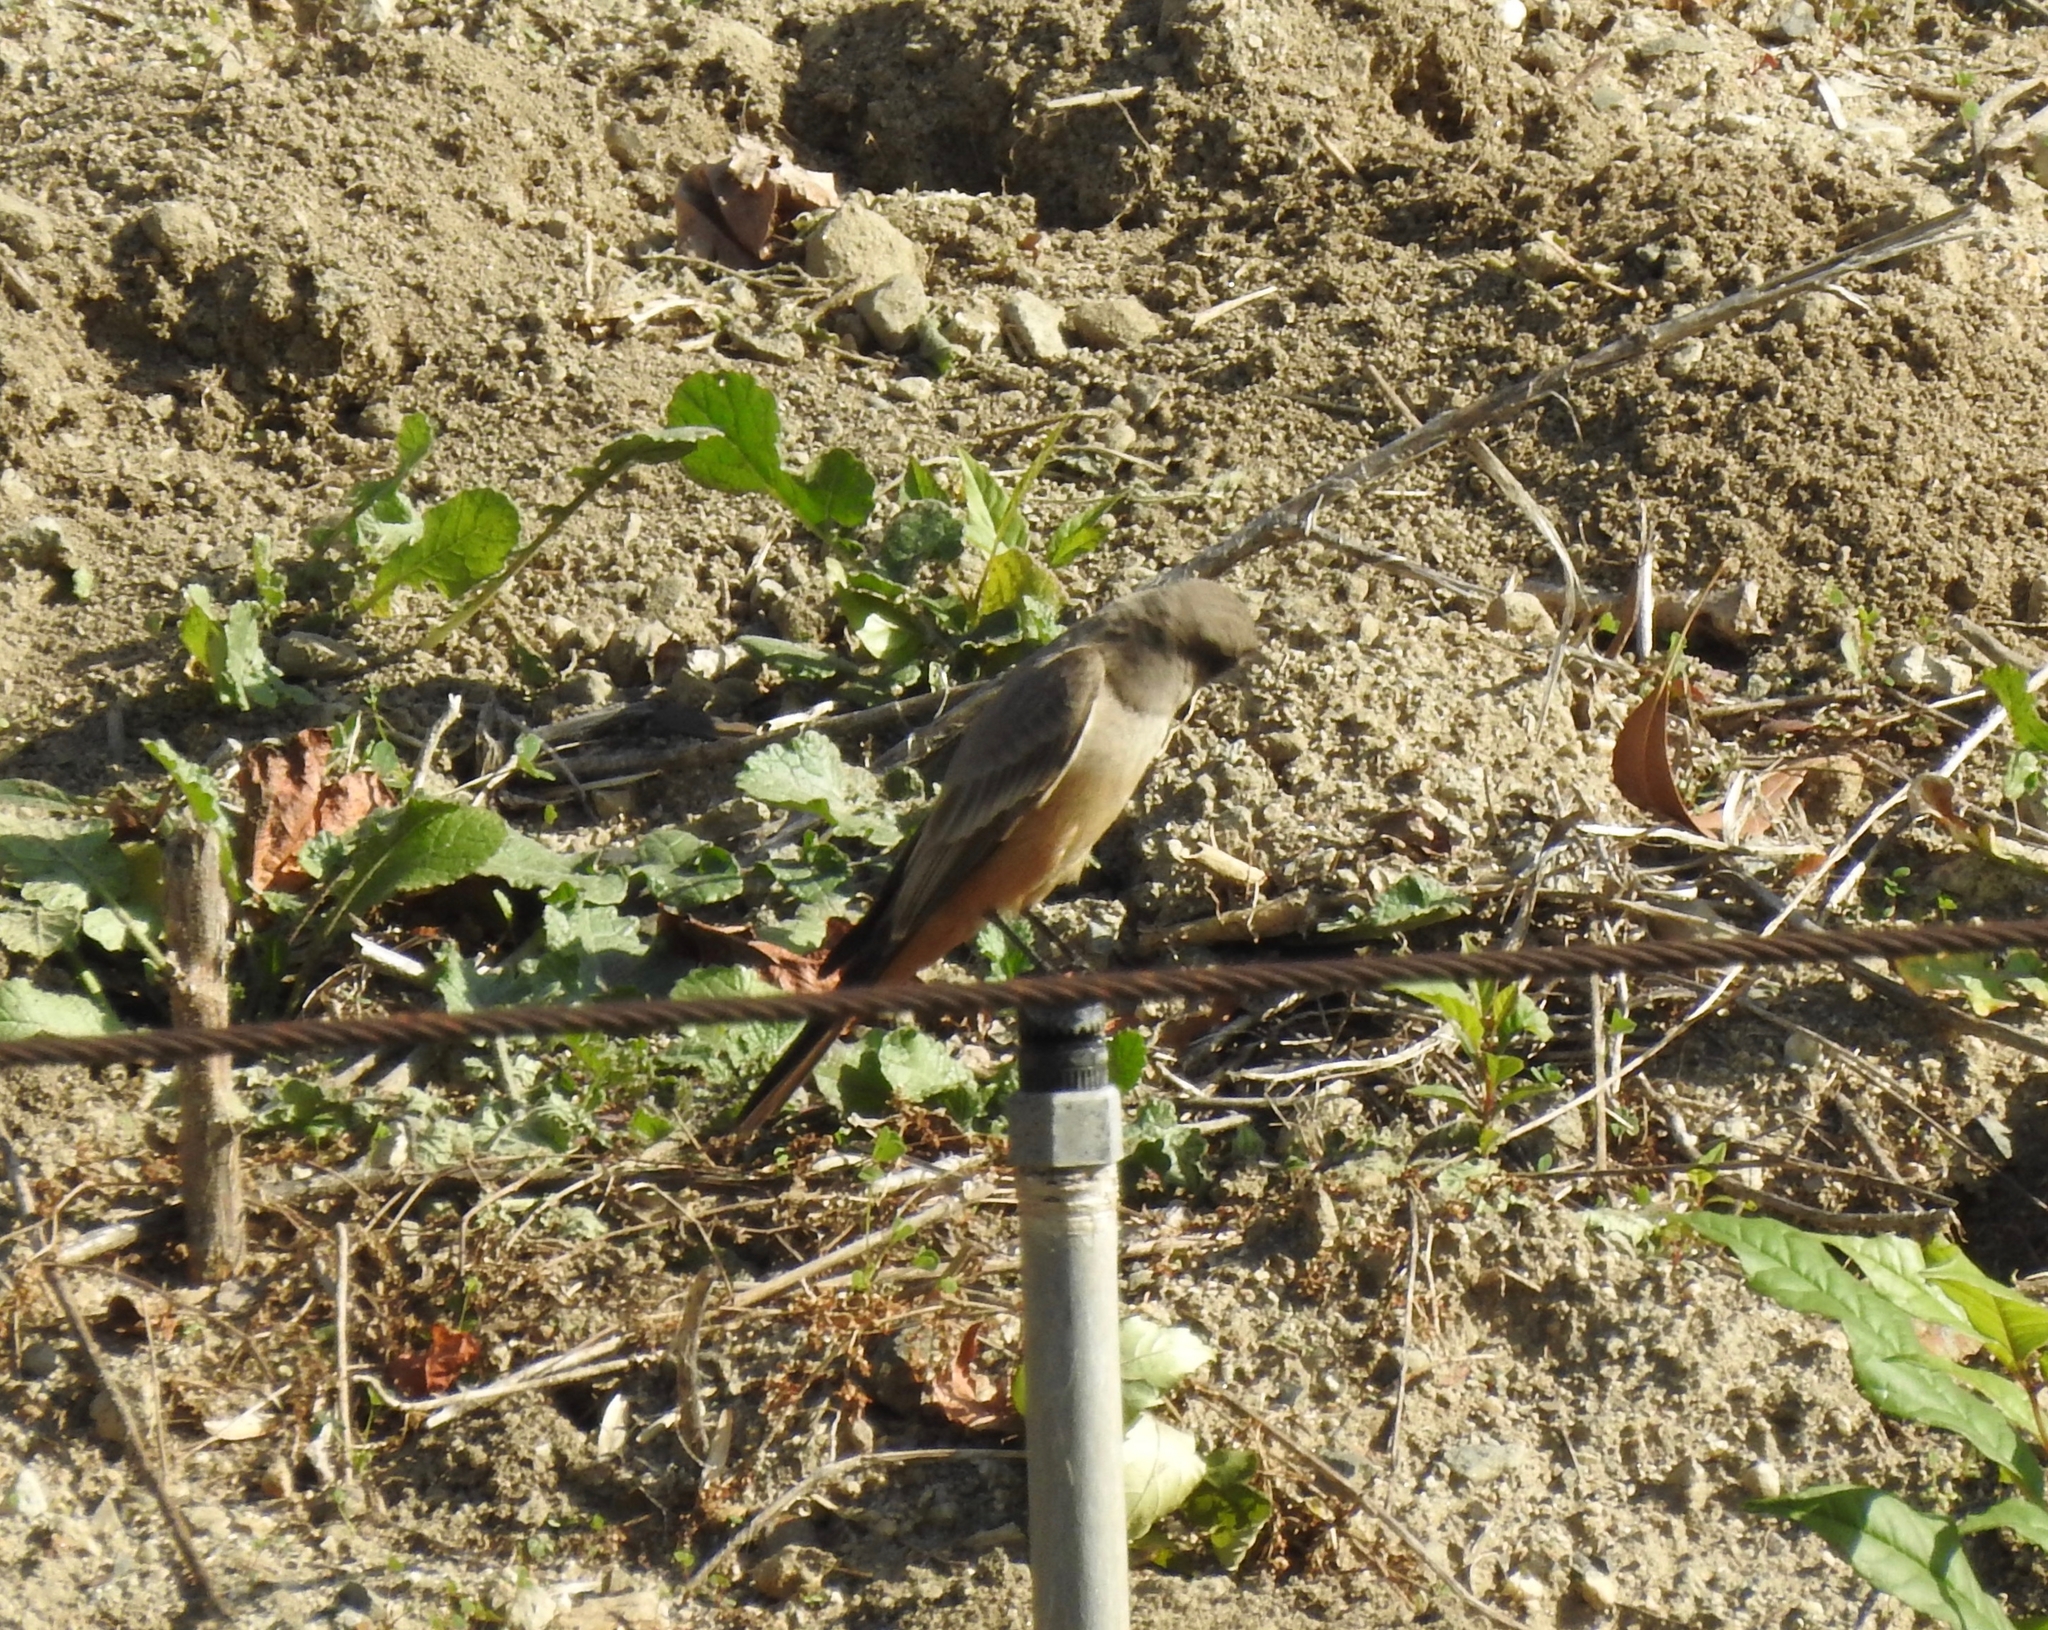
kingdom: Animalia
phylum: Chordata
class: Aves
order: Passeriformes
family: Tyrannidae
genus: Sayornis
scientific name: Sayornis saya
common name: Say's phoebe
